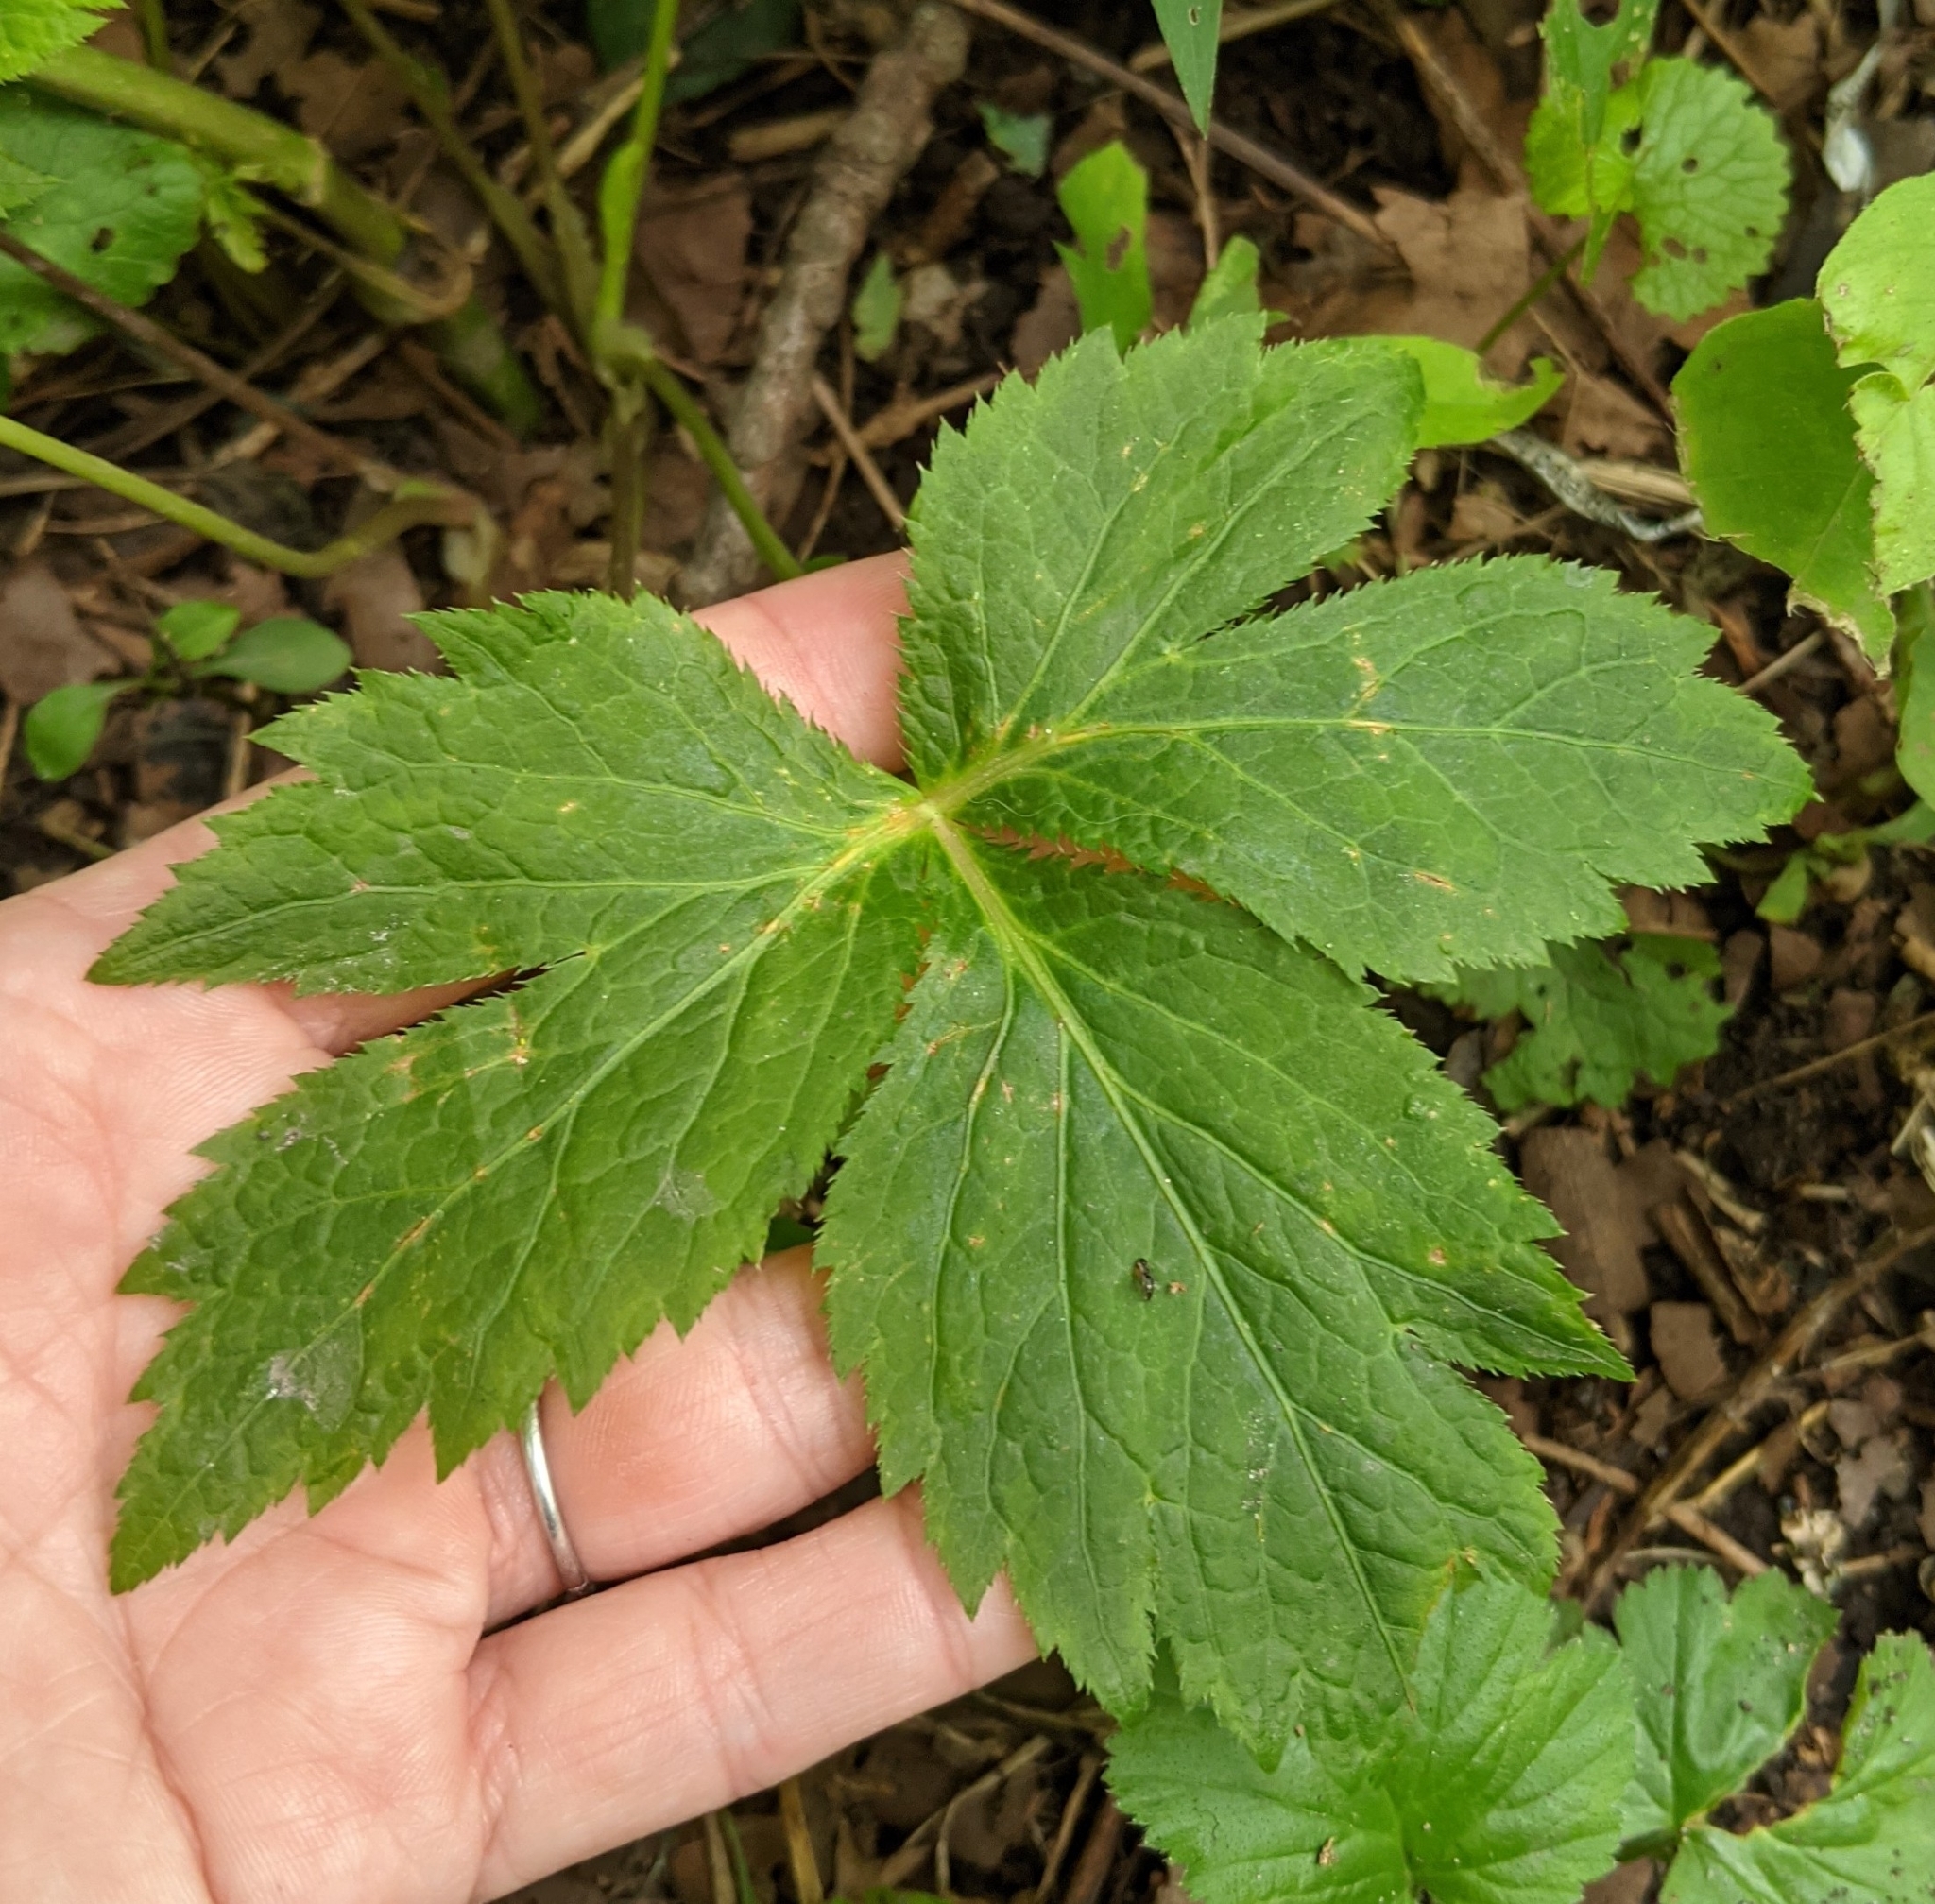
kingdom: Plantae
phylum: Tracheophyta
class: Magnoliopsida
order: Apiales
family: Apiaceae
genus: Cryptotaenia
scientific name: Cryptotaenia canadensis
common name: Honewort
